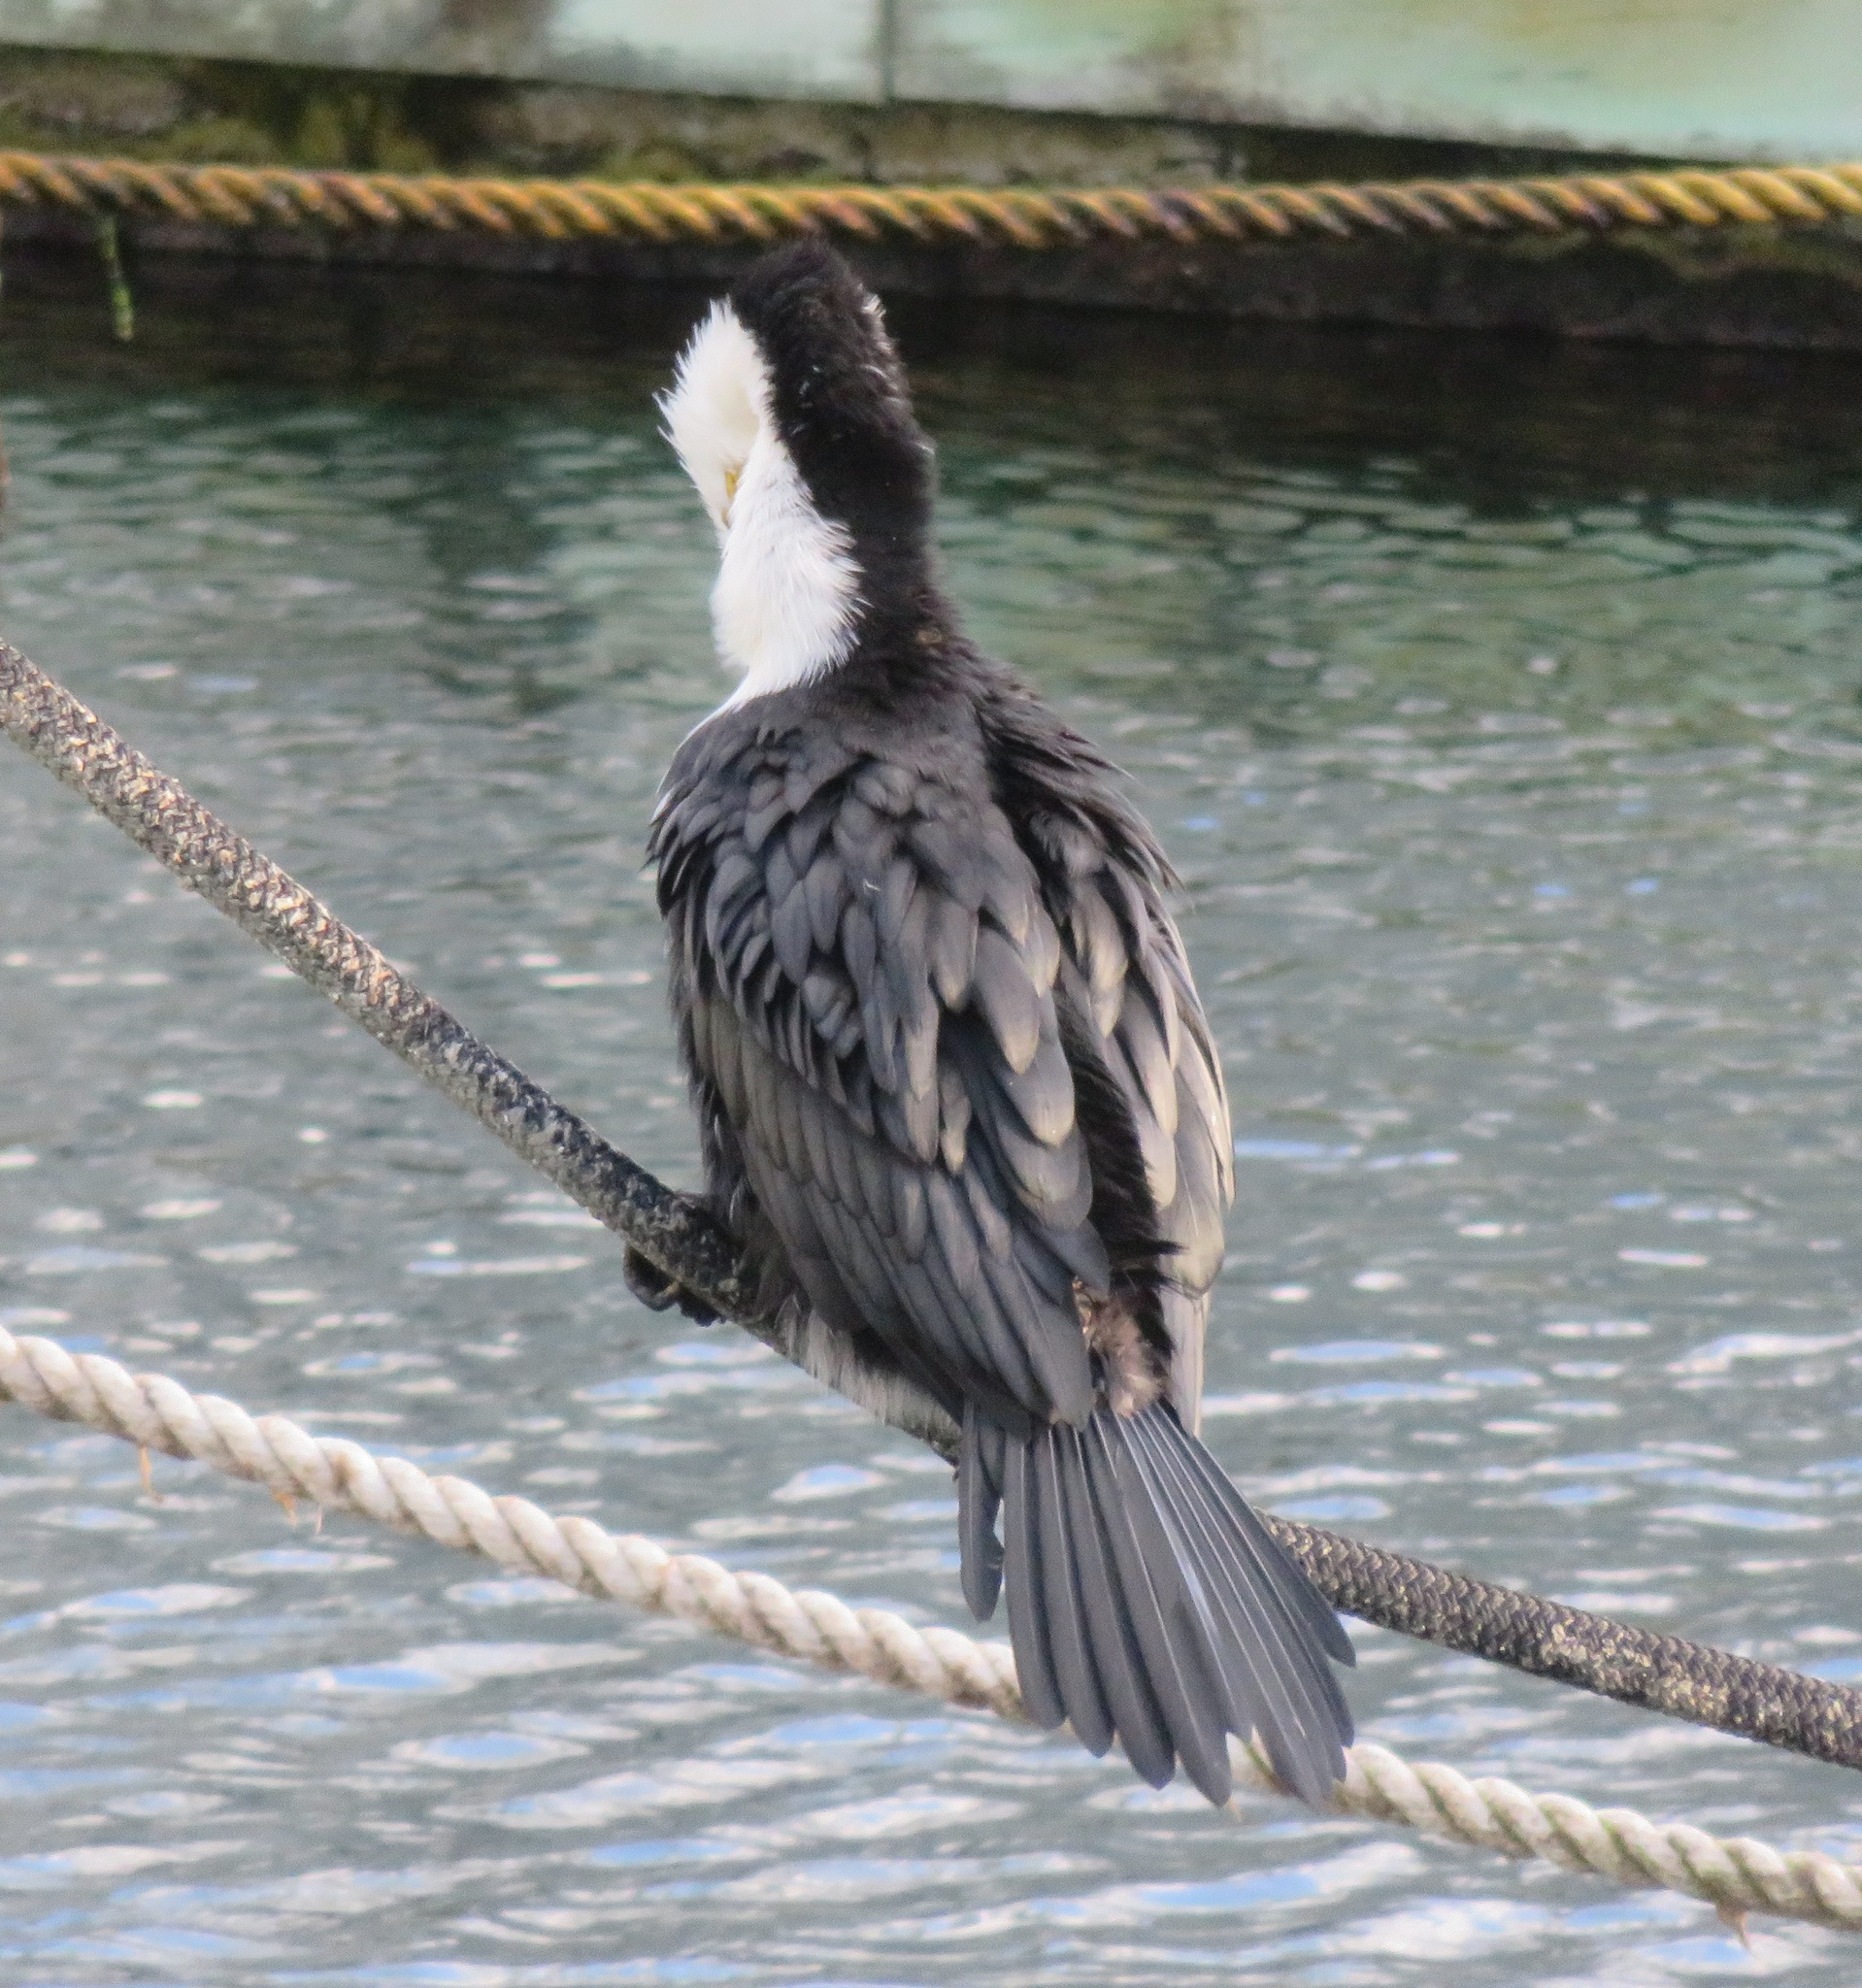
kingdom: Animalia
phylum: Chordata
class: Aves
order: Suliformes
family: Phalacrocoracidae
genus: Microcarbo
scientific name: Microcarbo melanoleucos
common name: Little pied cormorant
